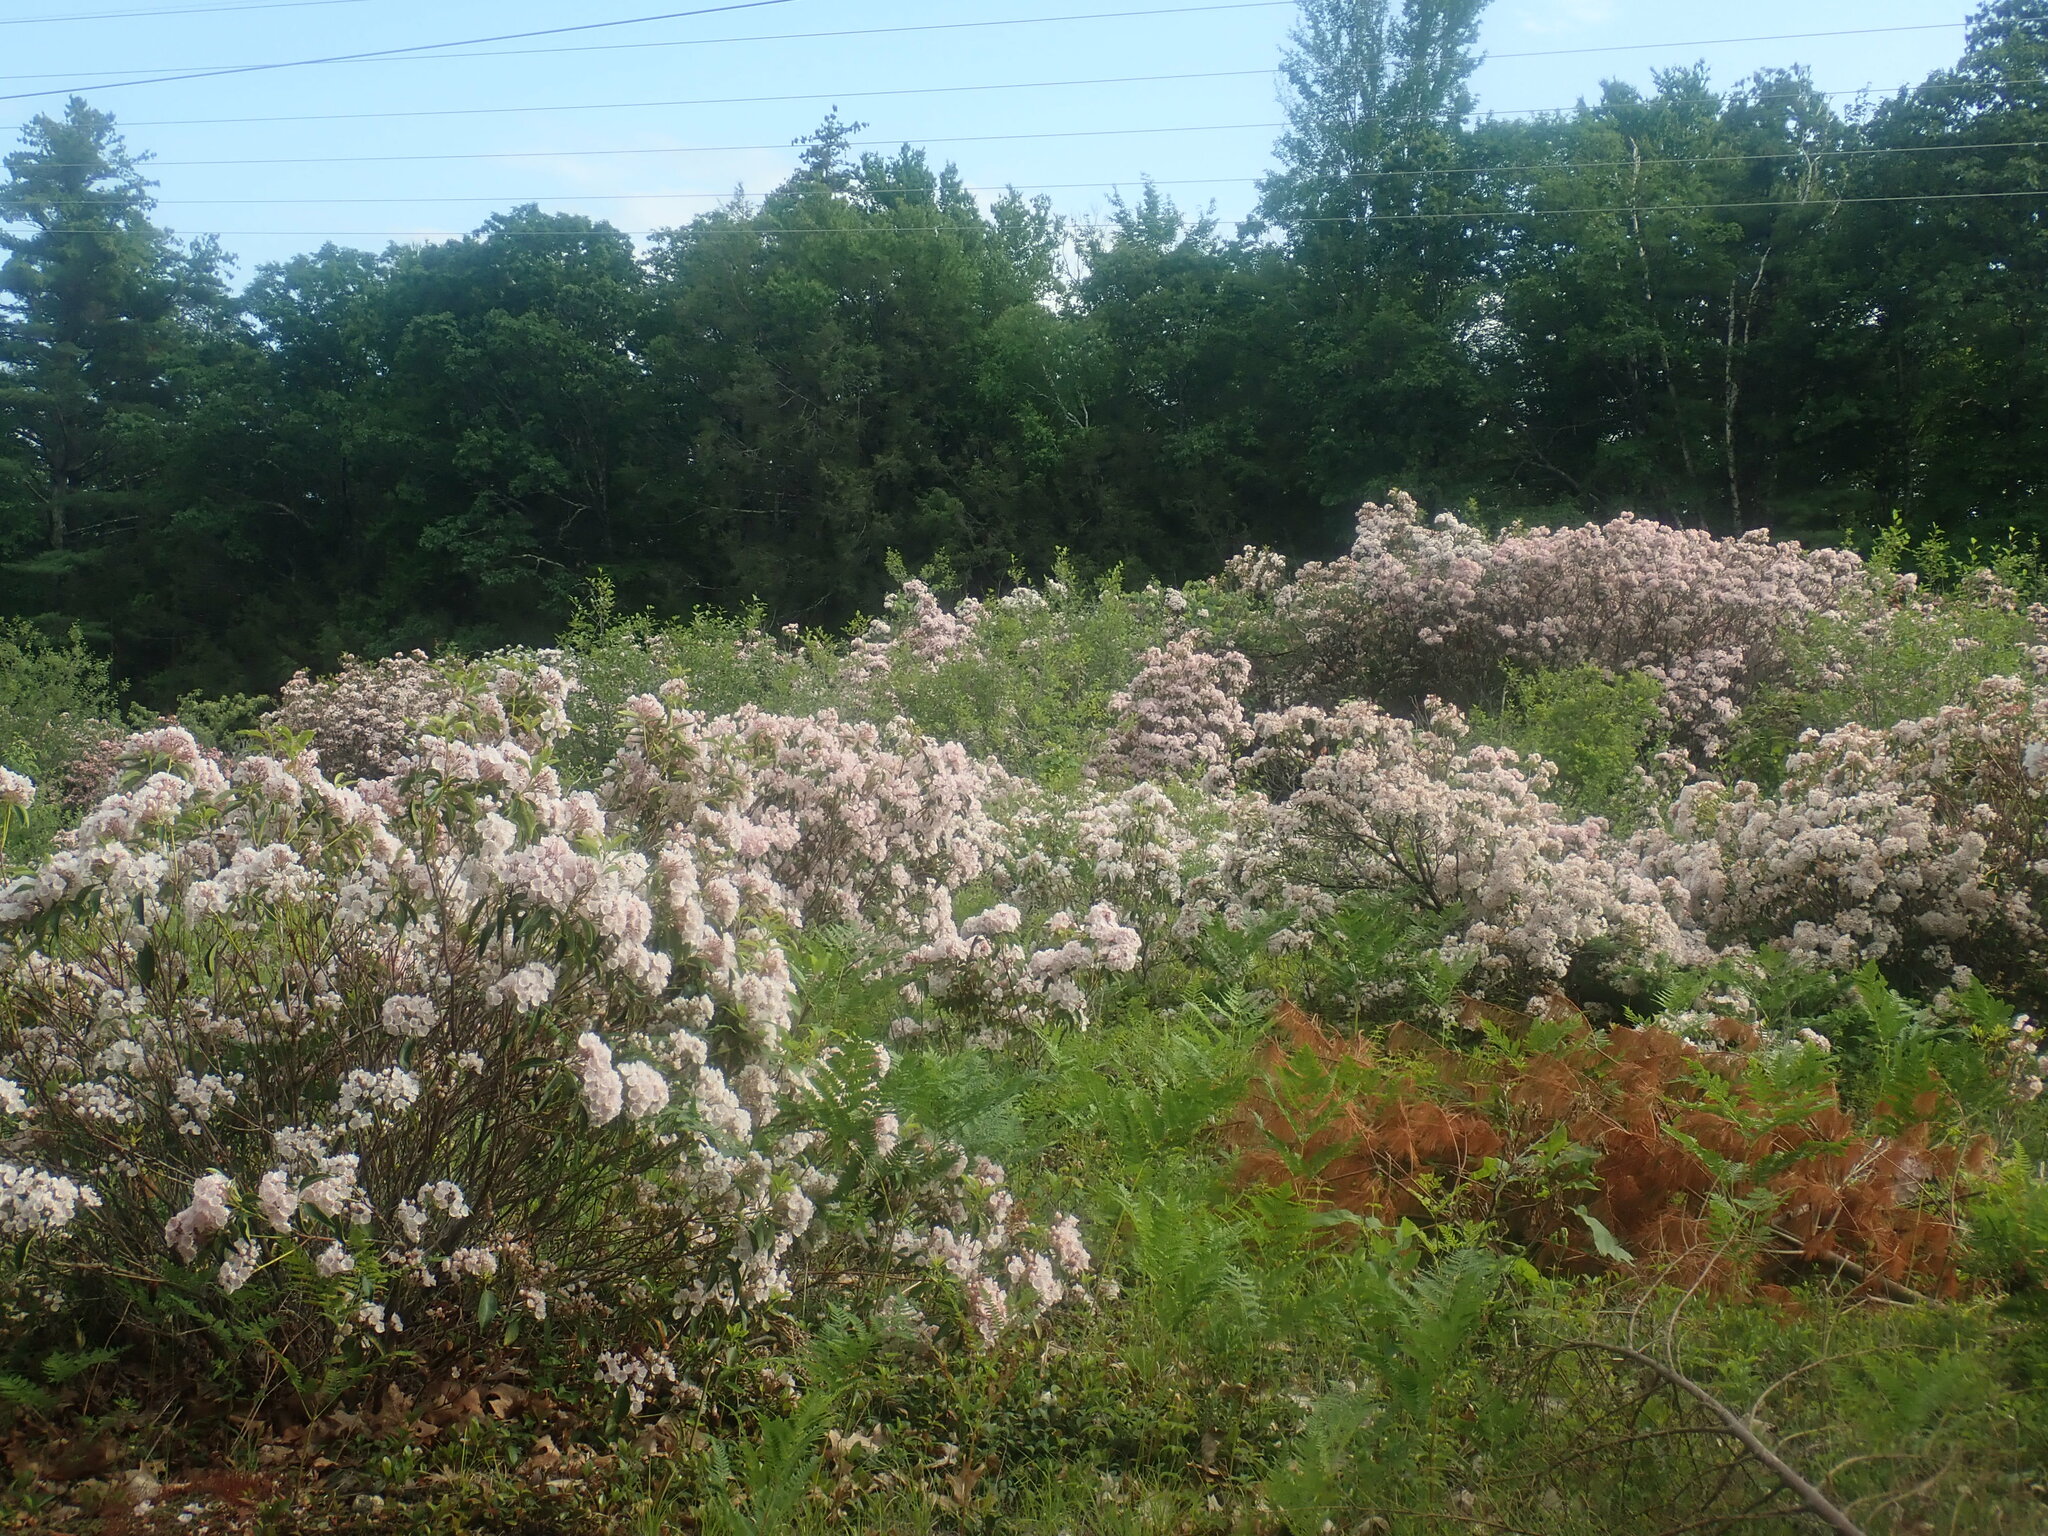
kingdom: Plantae
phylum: Tracheophyta
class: Magnoliopsida
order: Ericales
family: Ericaceae
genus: Kalmia
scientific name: Kalmia latifolia
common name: Mountain-laurel
